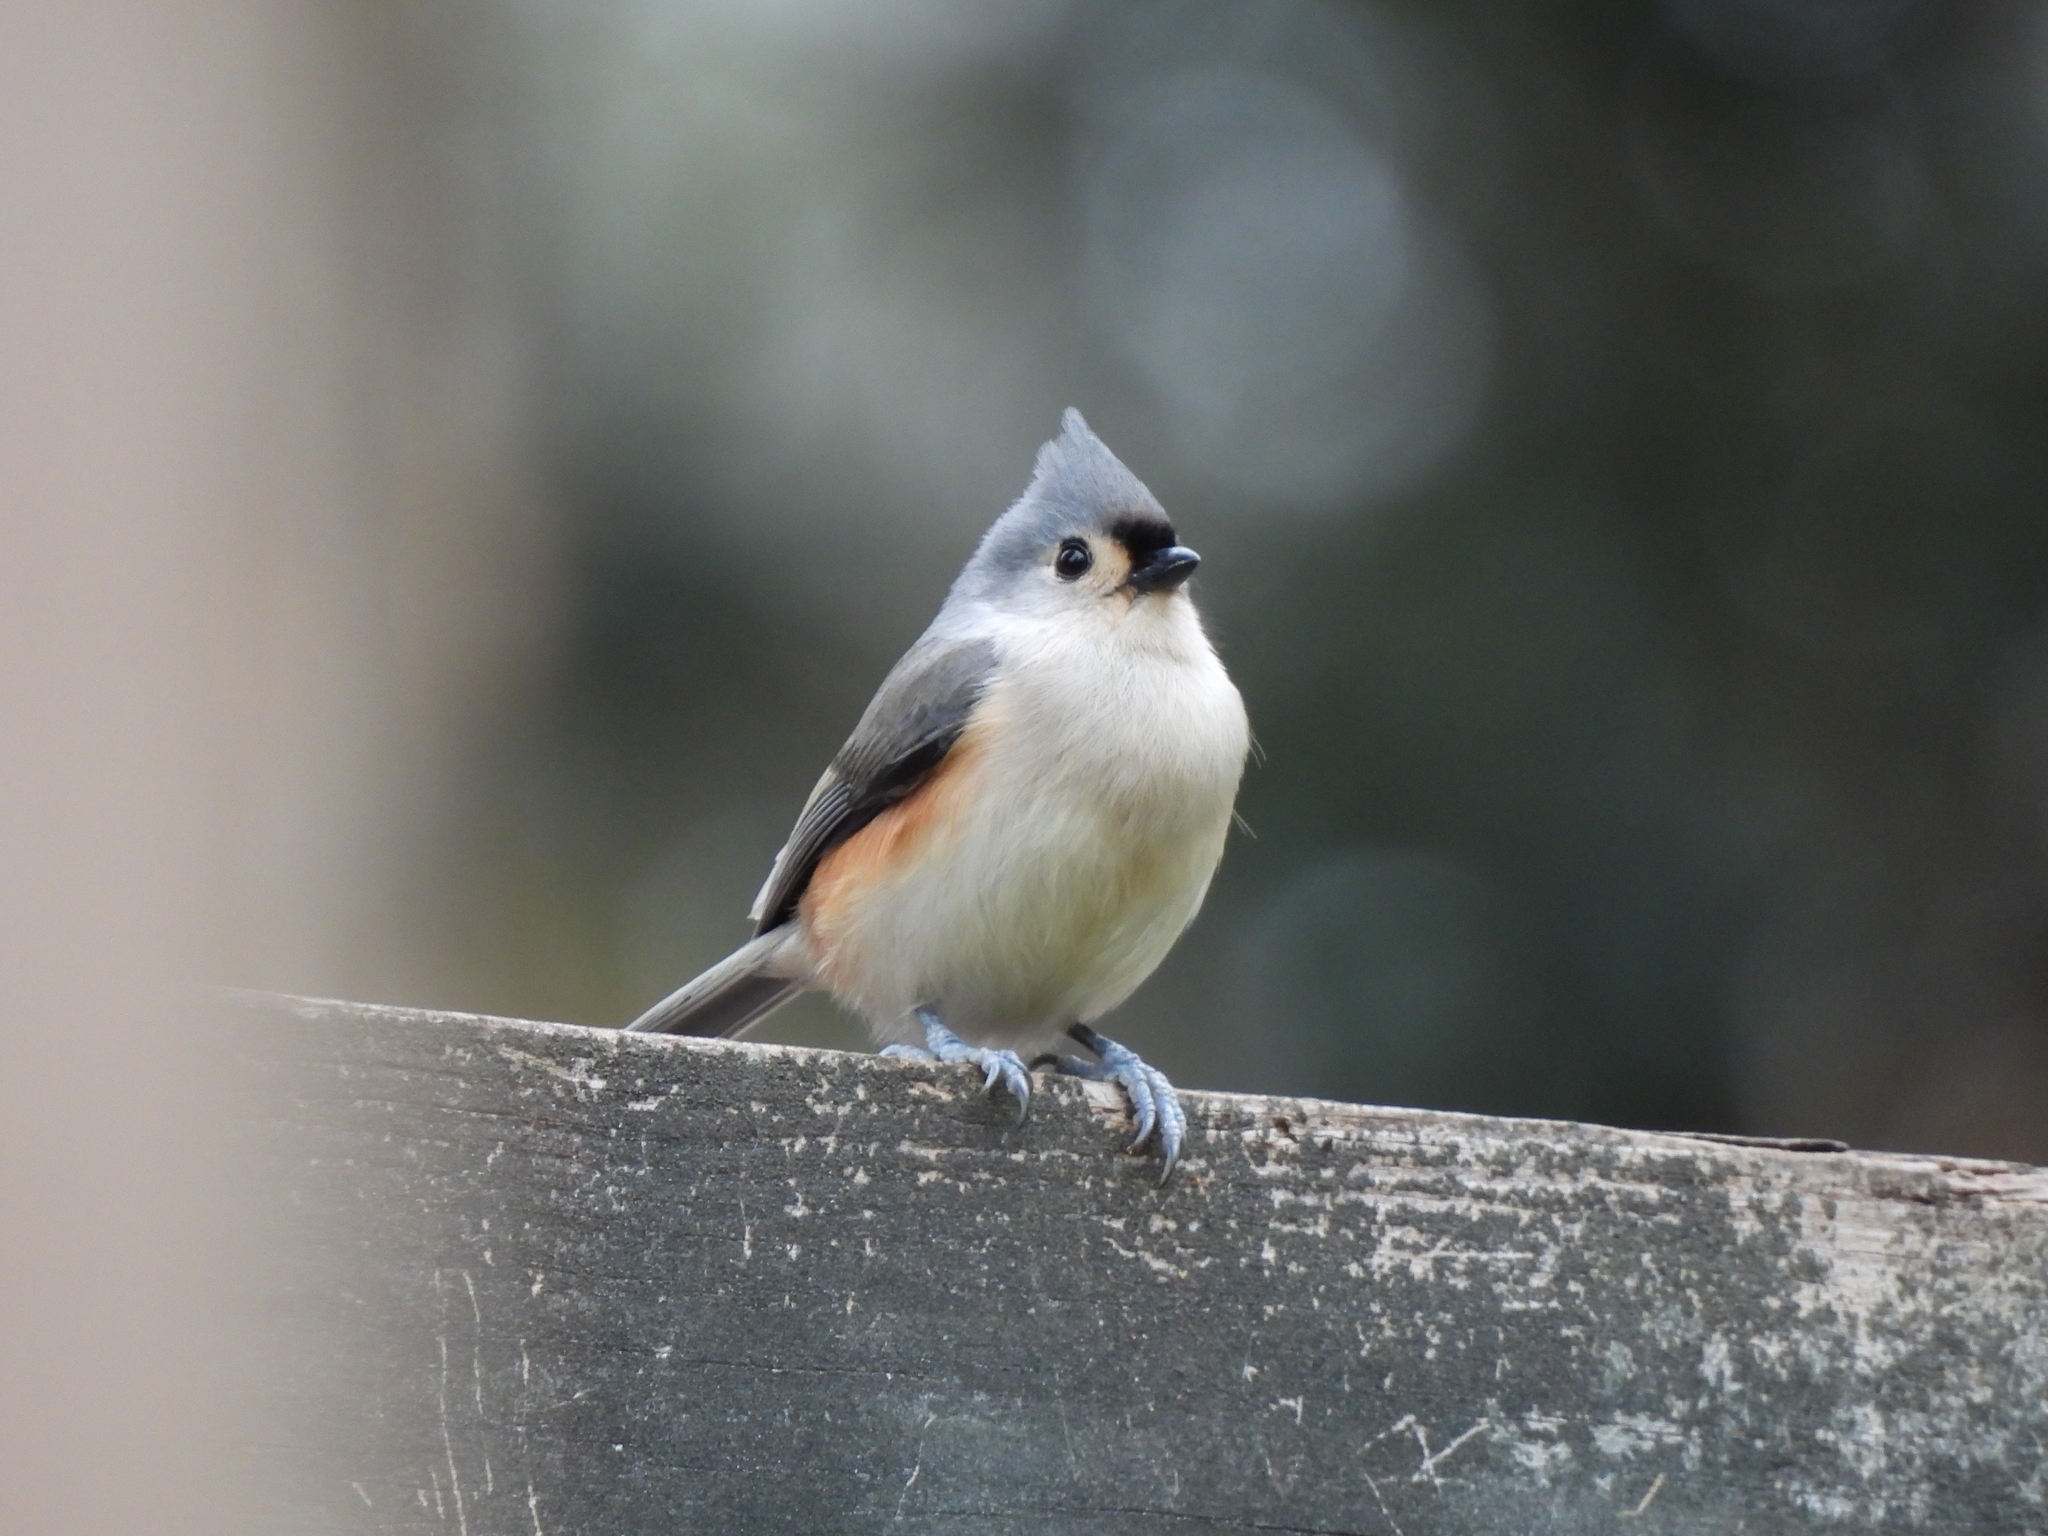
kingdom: Animalia
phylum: Chordata
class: Aves
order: Passeriformes
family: Paridae
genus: Baeolophus
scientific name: Baeolophus bicolor
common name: Tufted titmouse
